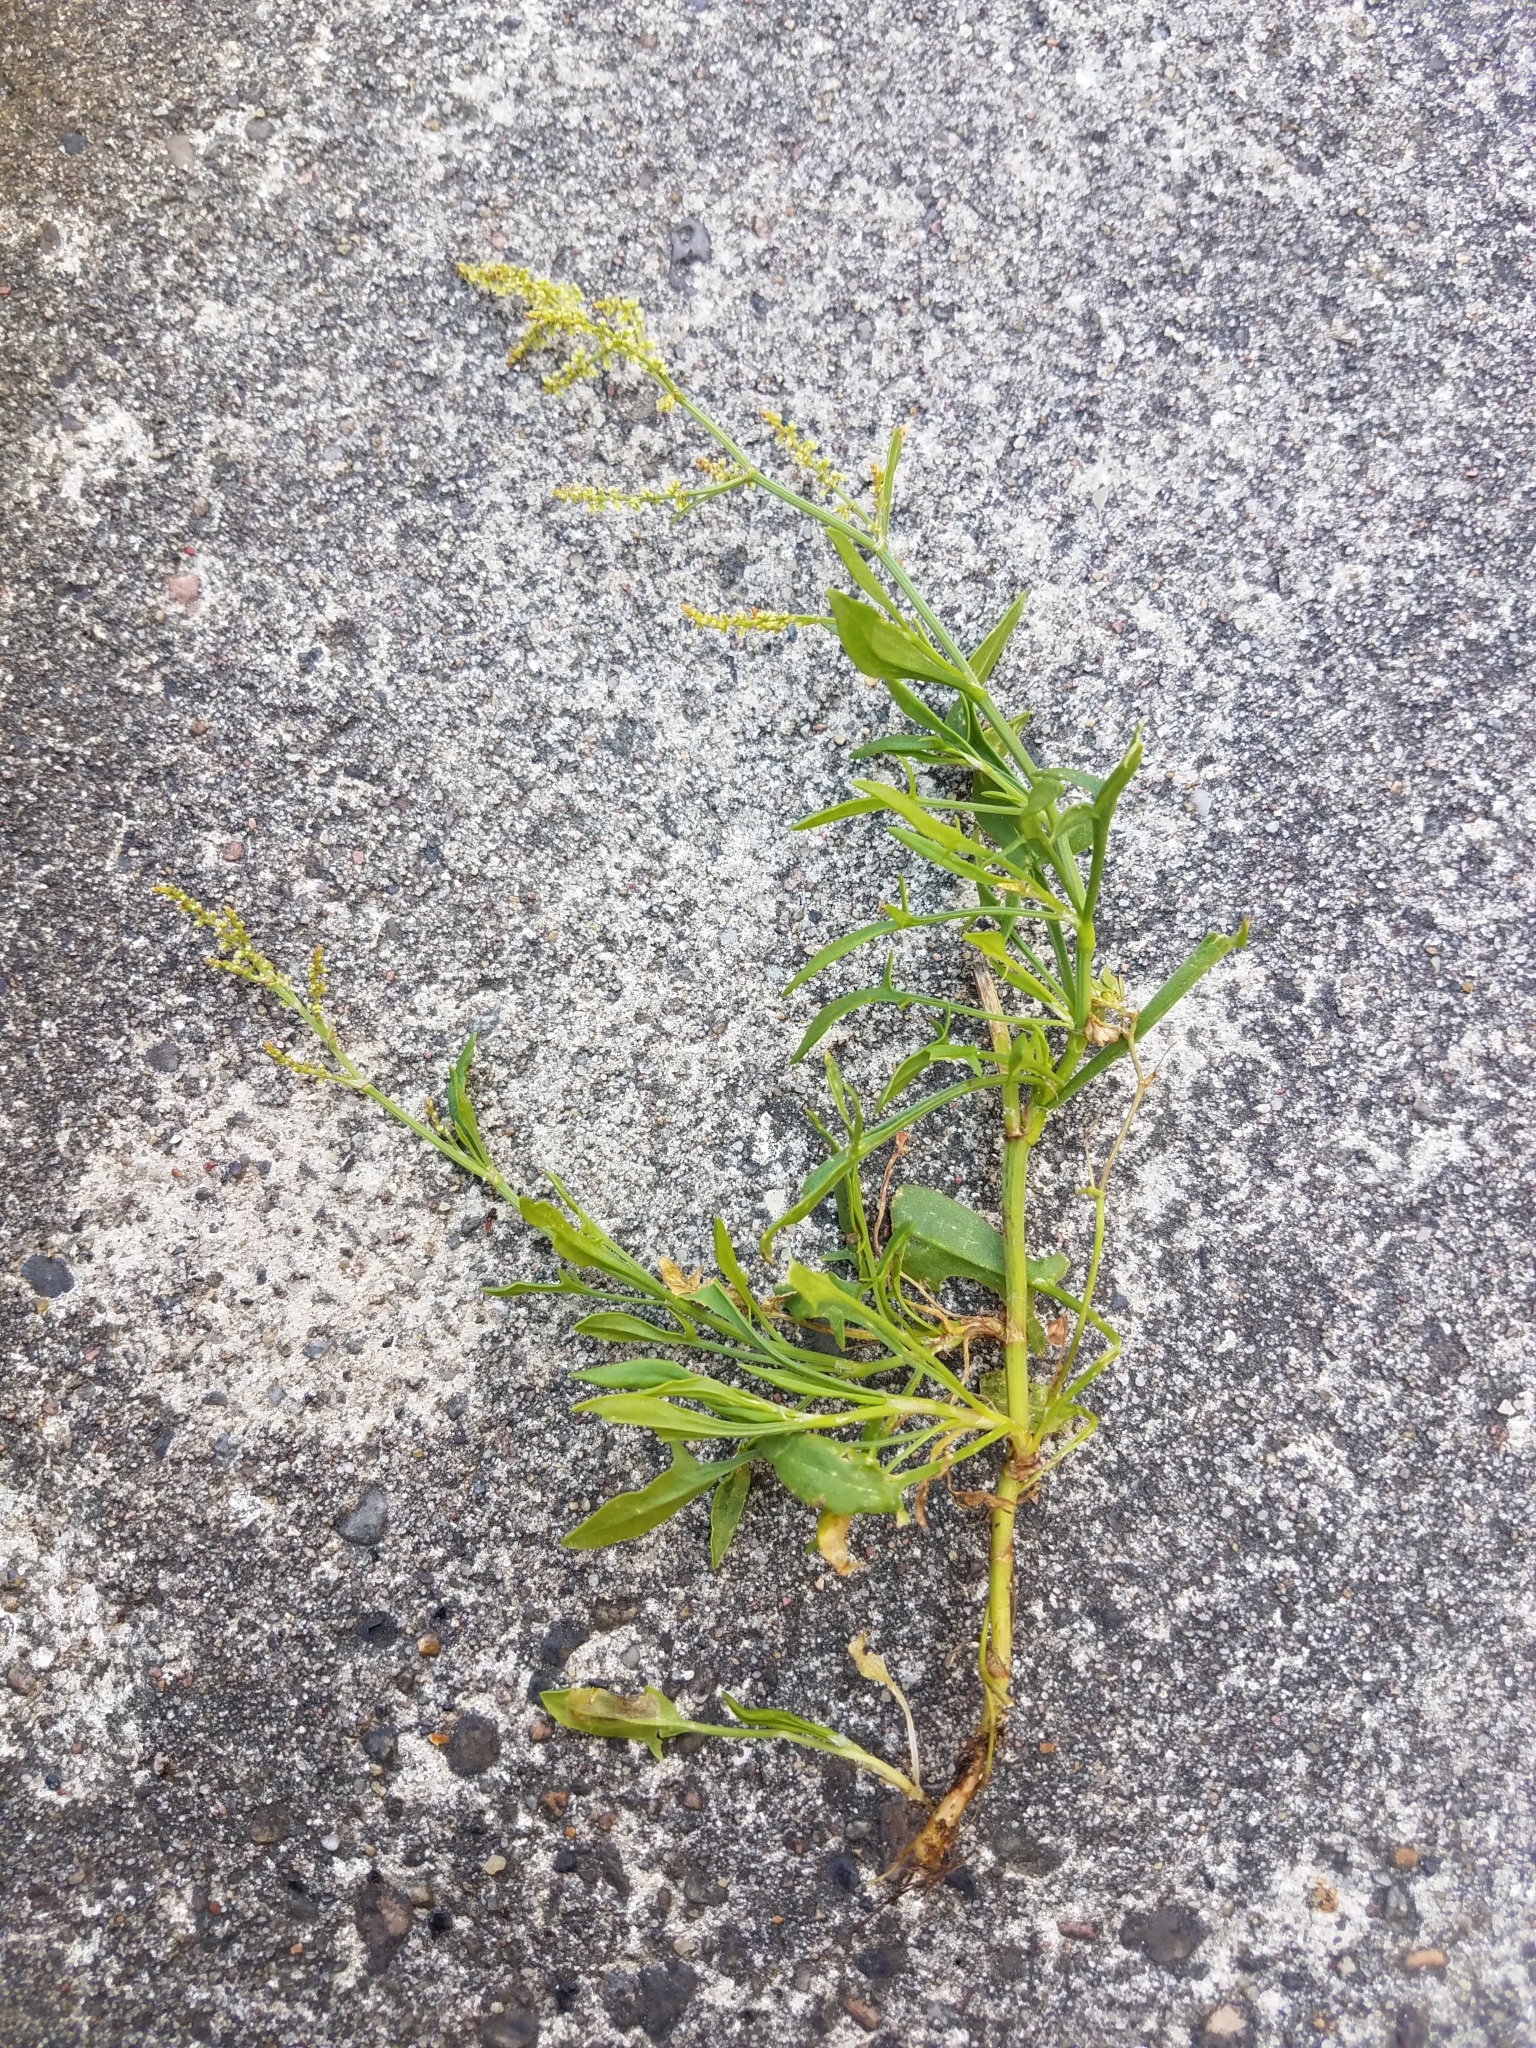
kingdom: Plantae
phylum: Tracheophyta
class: Magnoliopsida
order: Caryophyllales
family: Polygonaceae
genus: Rumex
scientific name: Rumex acetosella
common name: Common sheep sorrel
